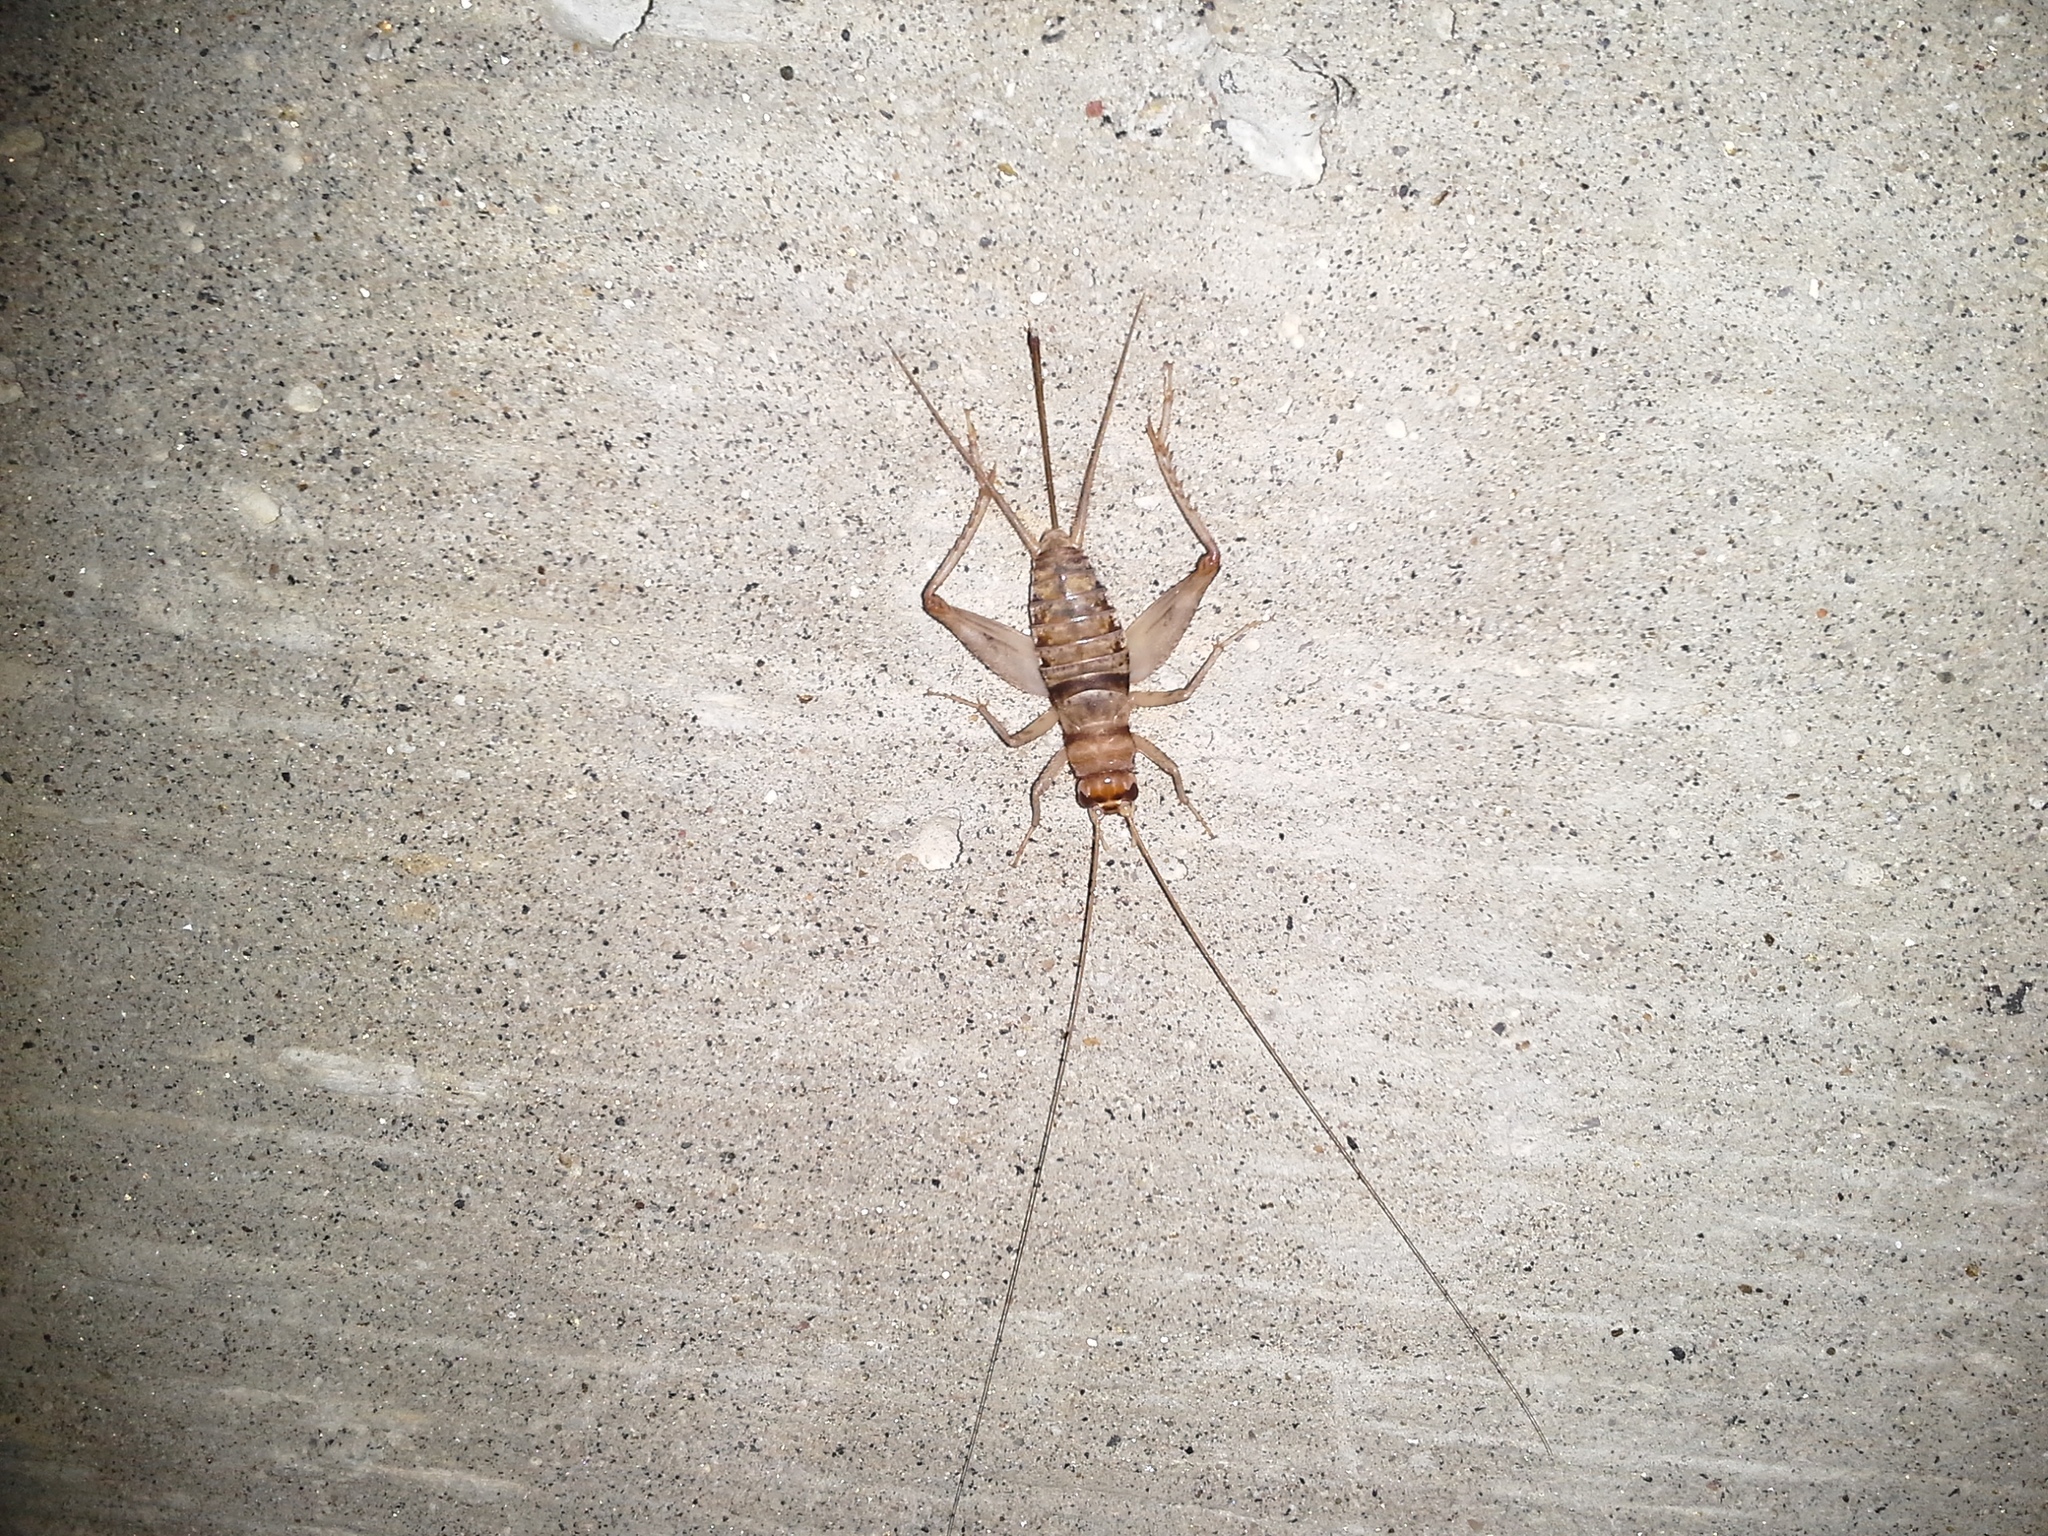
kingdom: Animalia
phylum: Arthropoda
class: Insecta
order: Orthoptera
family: Gryllidae
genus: Gryllodes
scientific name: Gryllodes sigillatus
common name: Tropical house cricket
